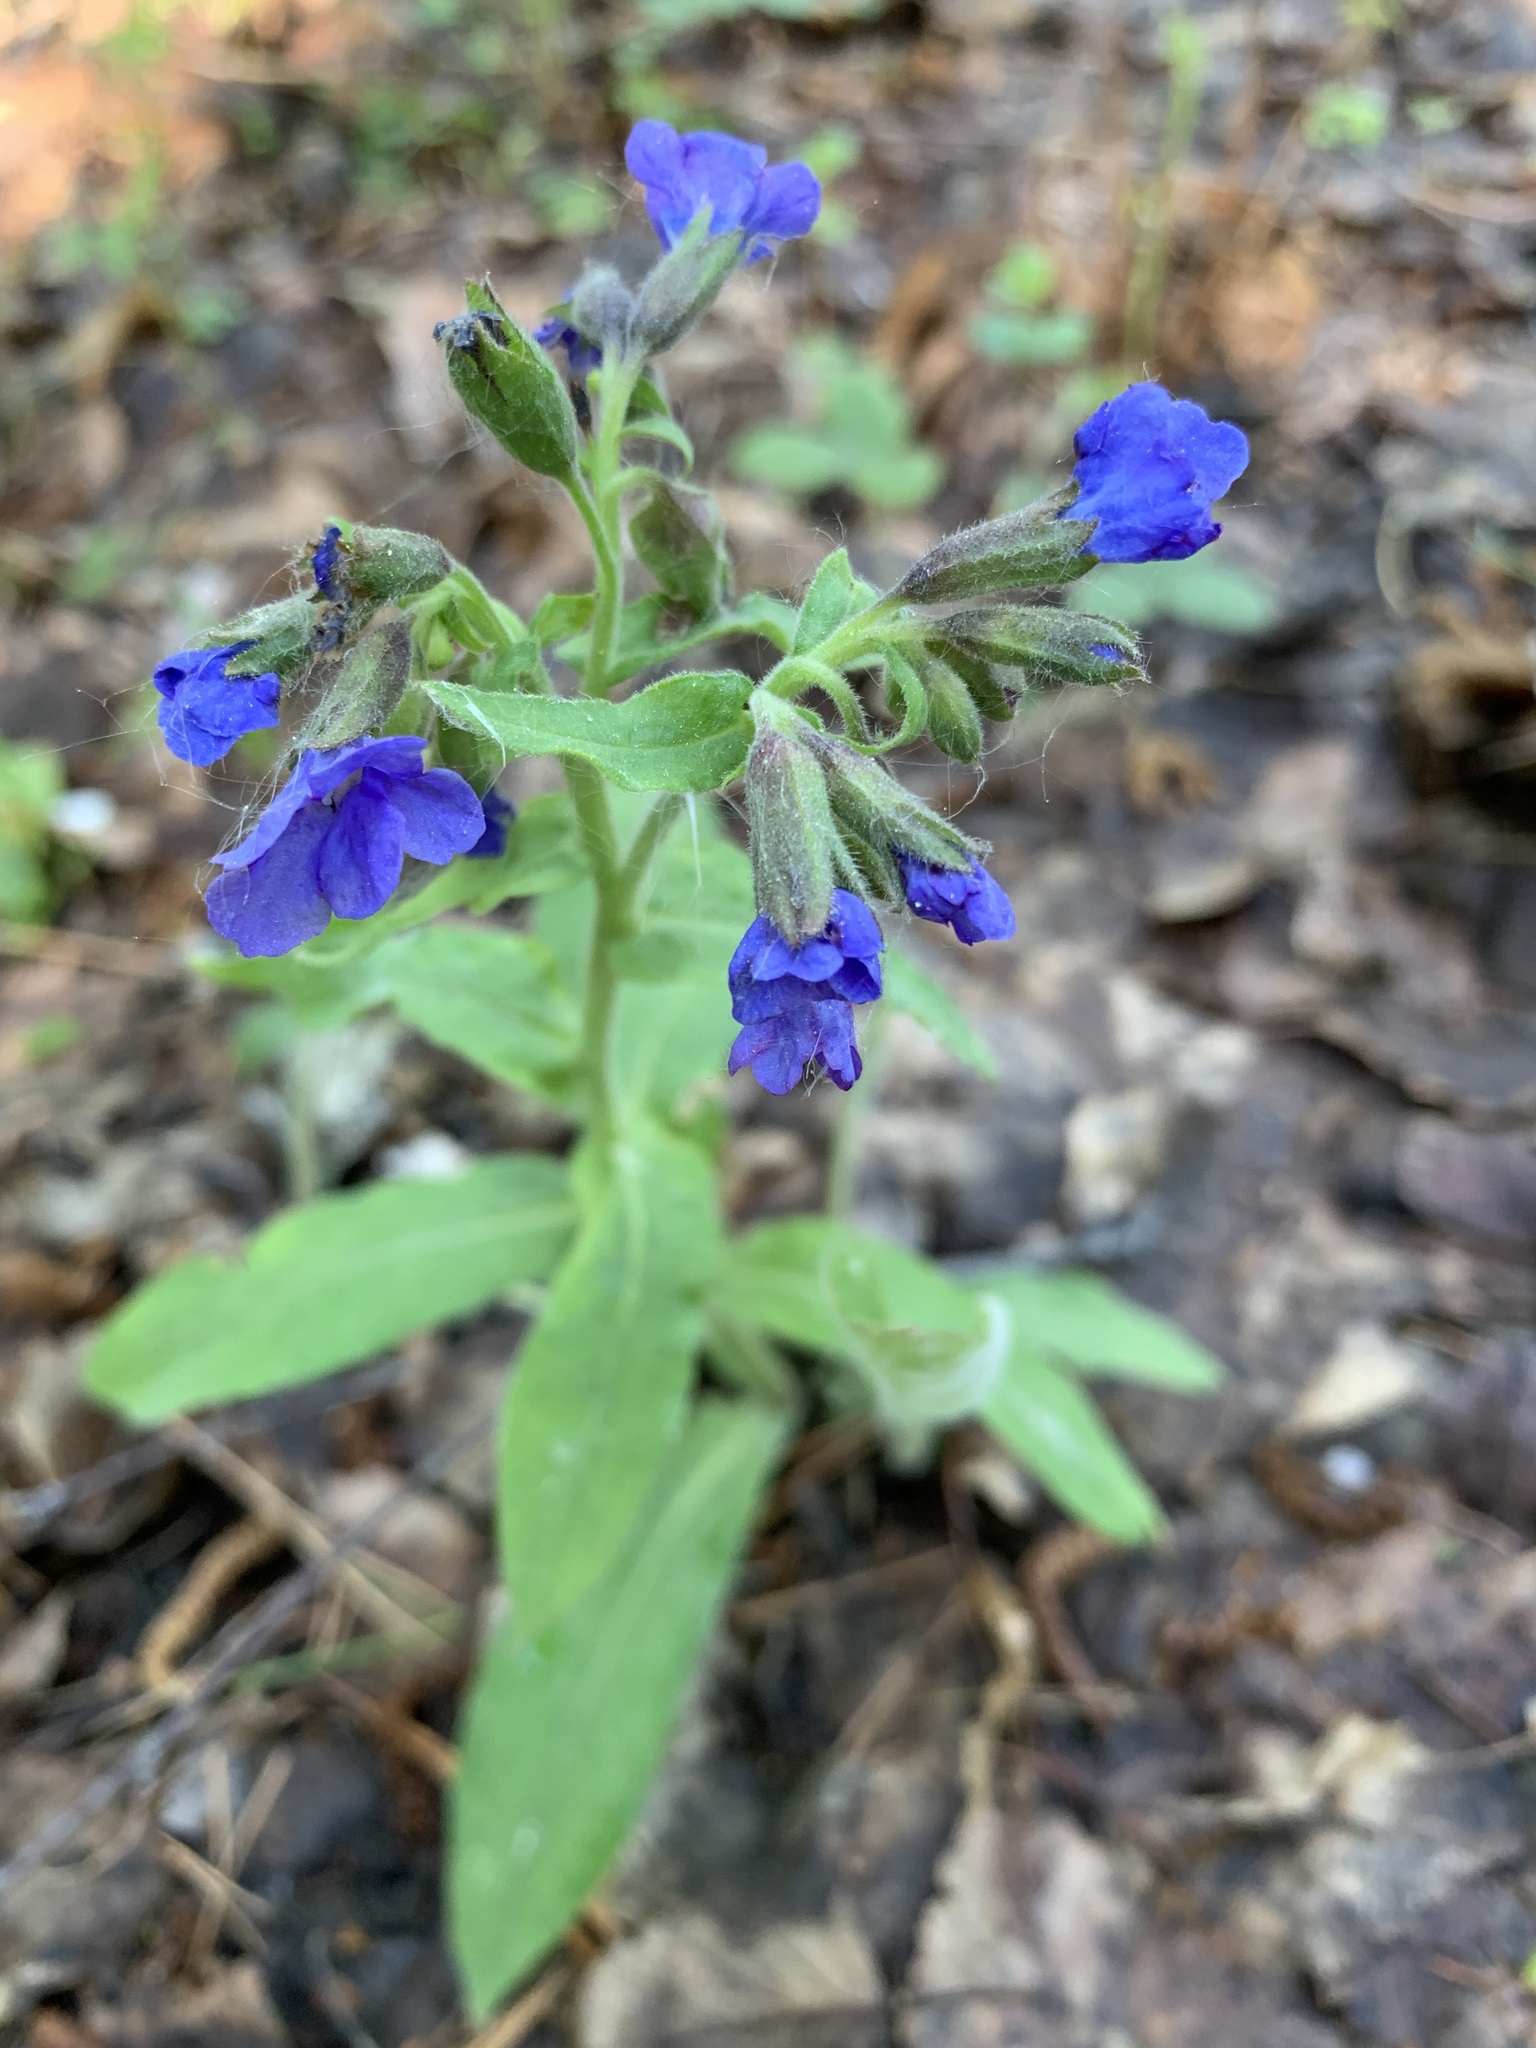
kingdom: Plantae
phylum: Tracheophyta
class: Magnoliopsida
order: Boraginales
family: Boraginaceae
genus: Pulmonaria
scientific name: Pulmonaria mollis
